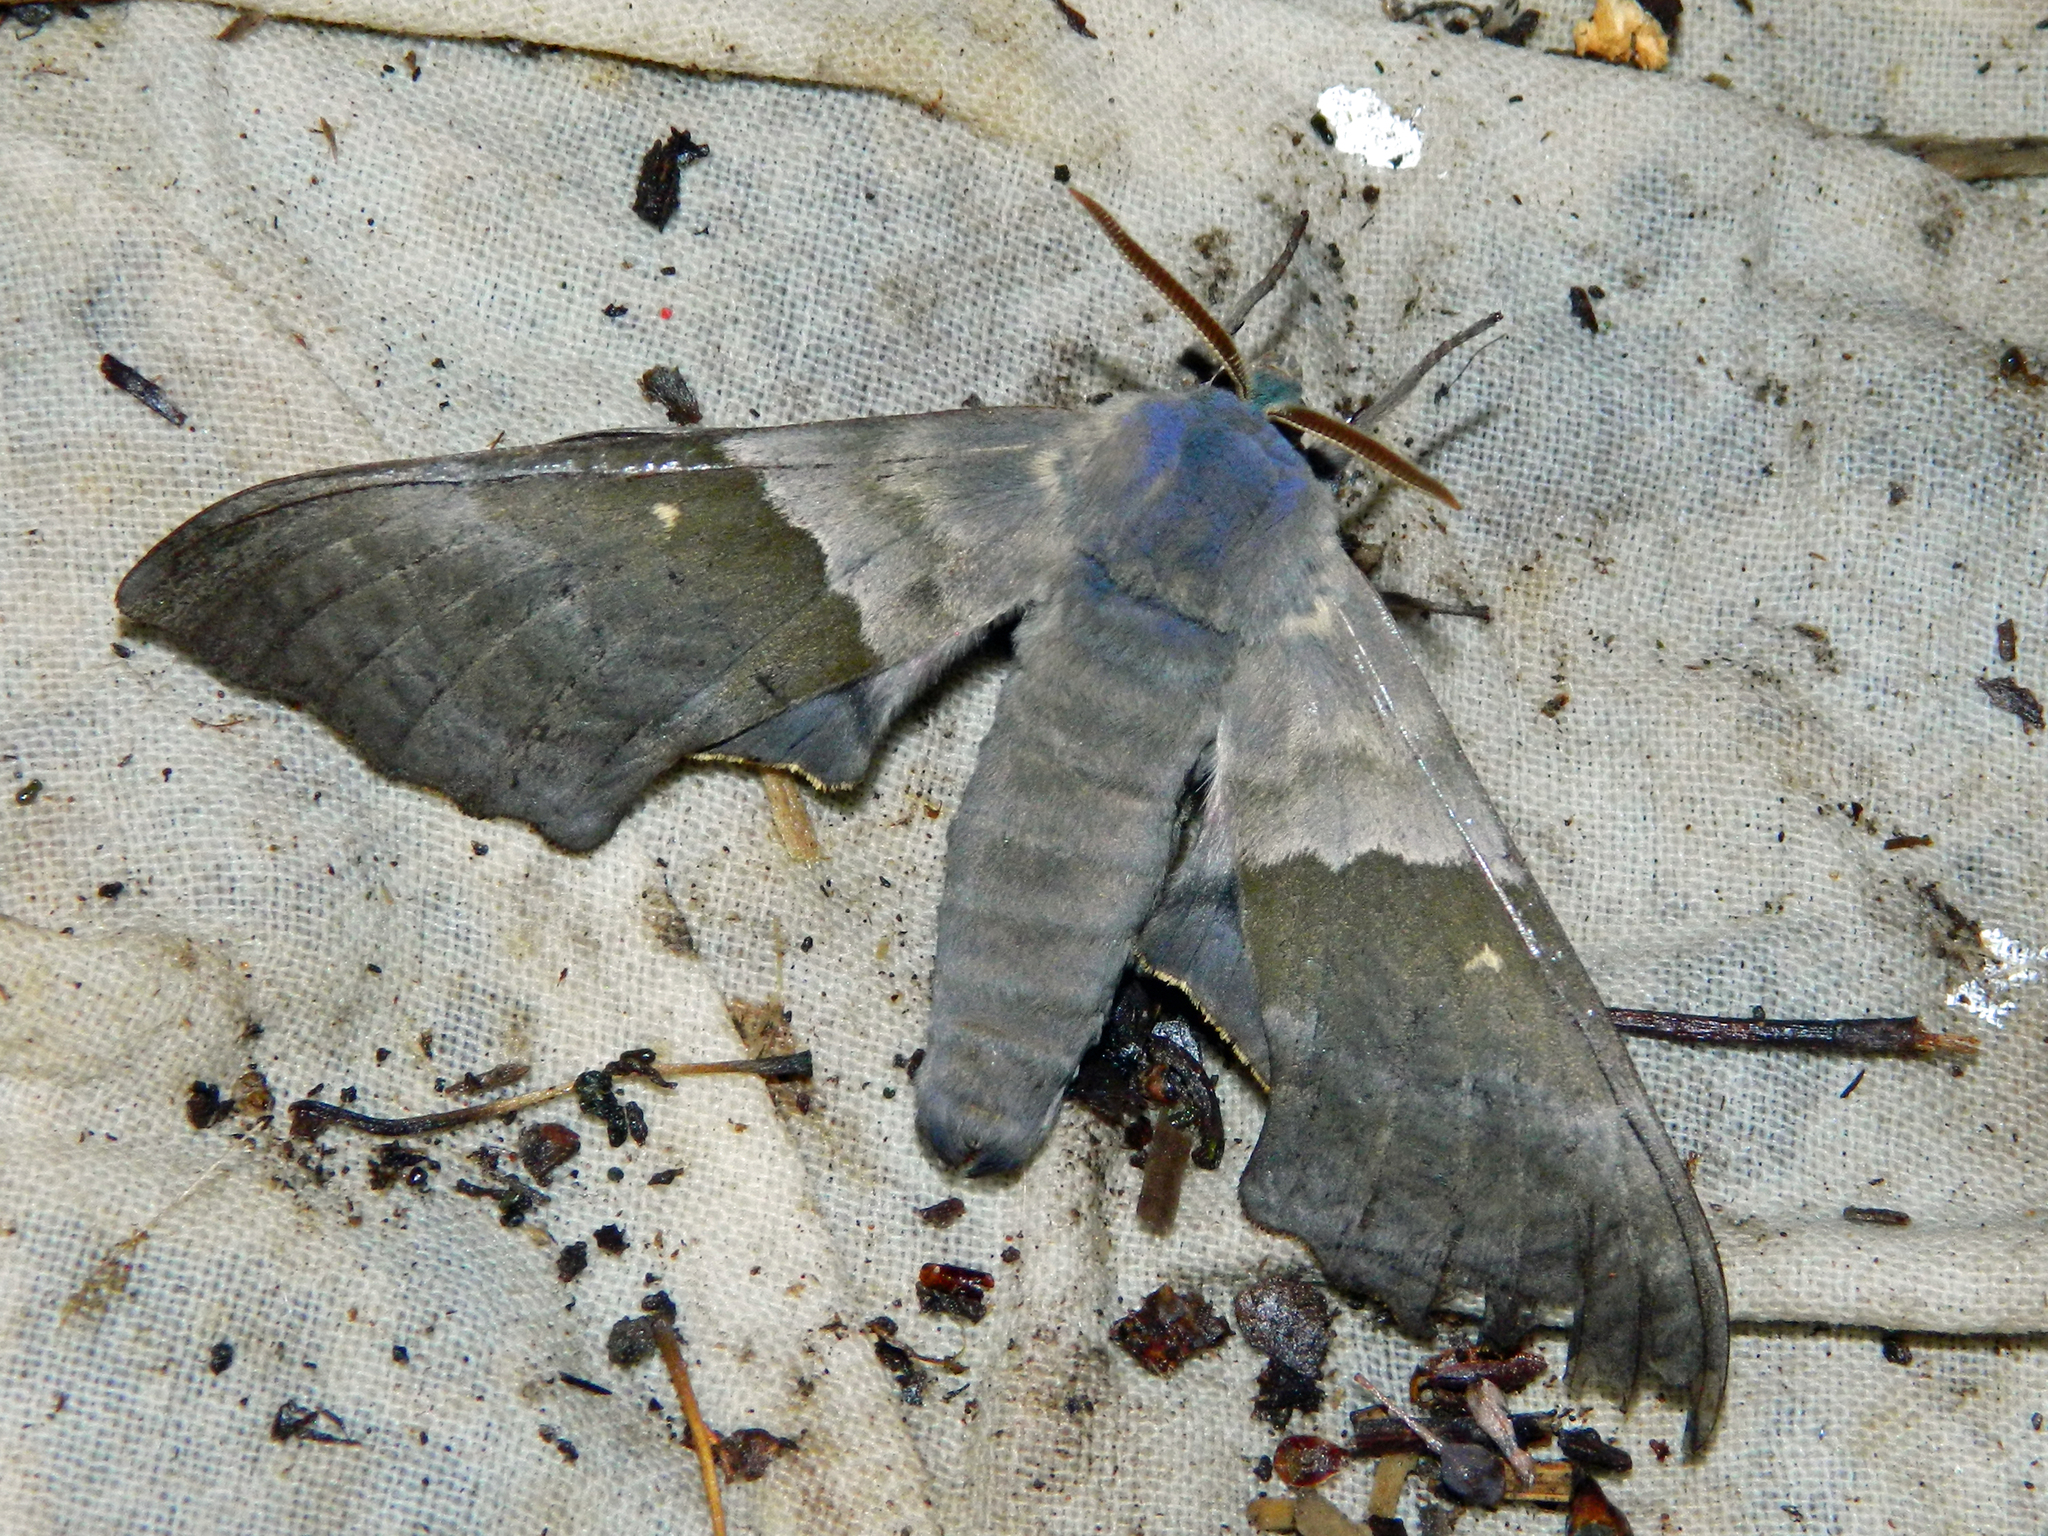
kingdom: Animalia
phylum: Arthropoda
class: Insecta
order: Lepidoptera
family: Sphingidae
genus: Pachysphinx
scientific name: Pachysphinx modesta
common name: Big poplar sphinx
